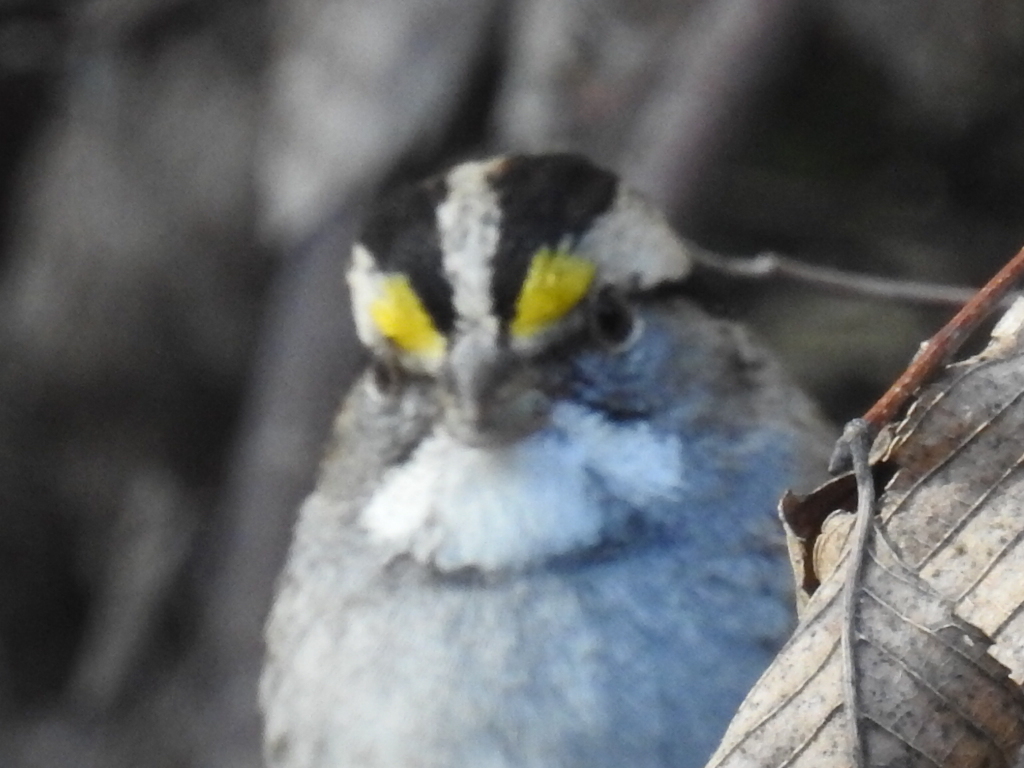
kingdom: Animalia
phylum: Chordata
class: Aves
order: Passeriformes
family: Passerellidae
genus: Zonotrichia
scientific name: Zonotrichia albicollis
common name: White-throated sparrow
